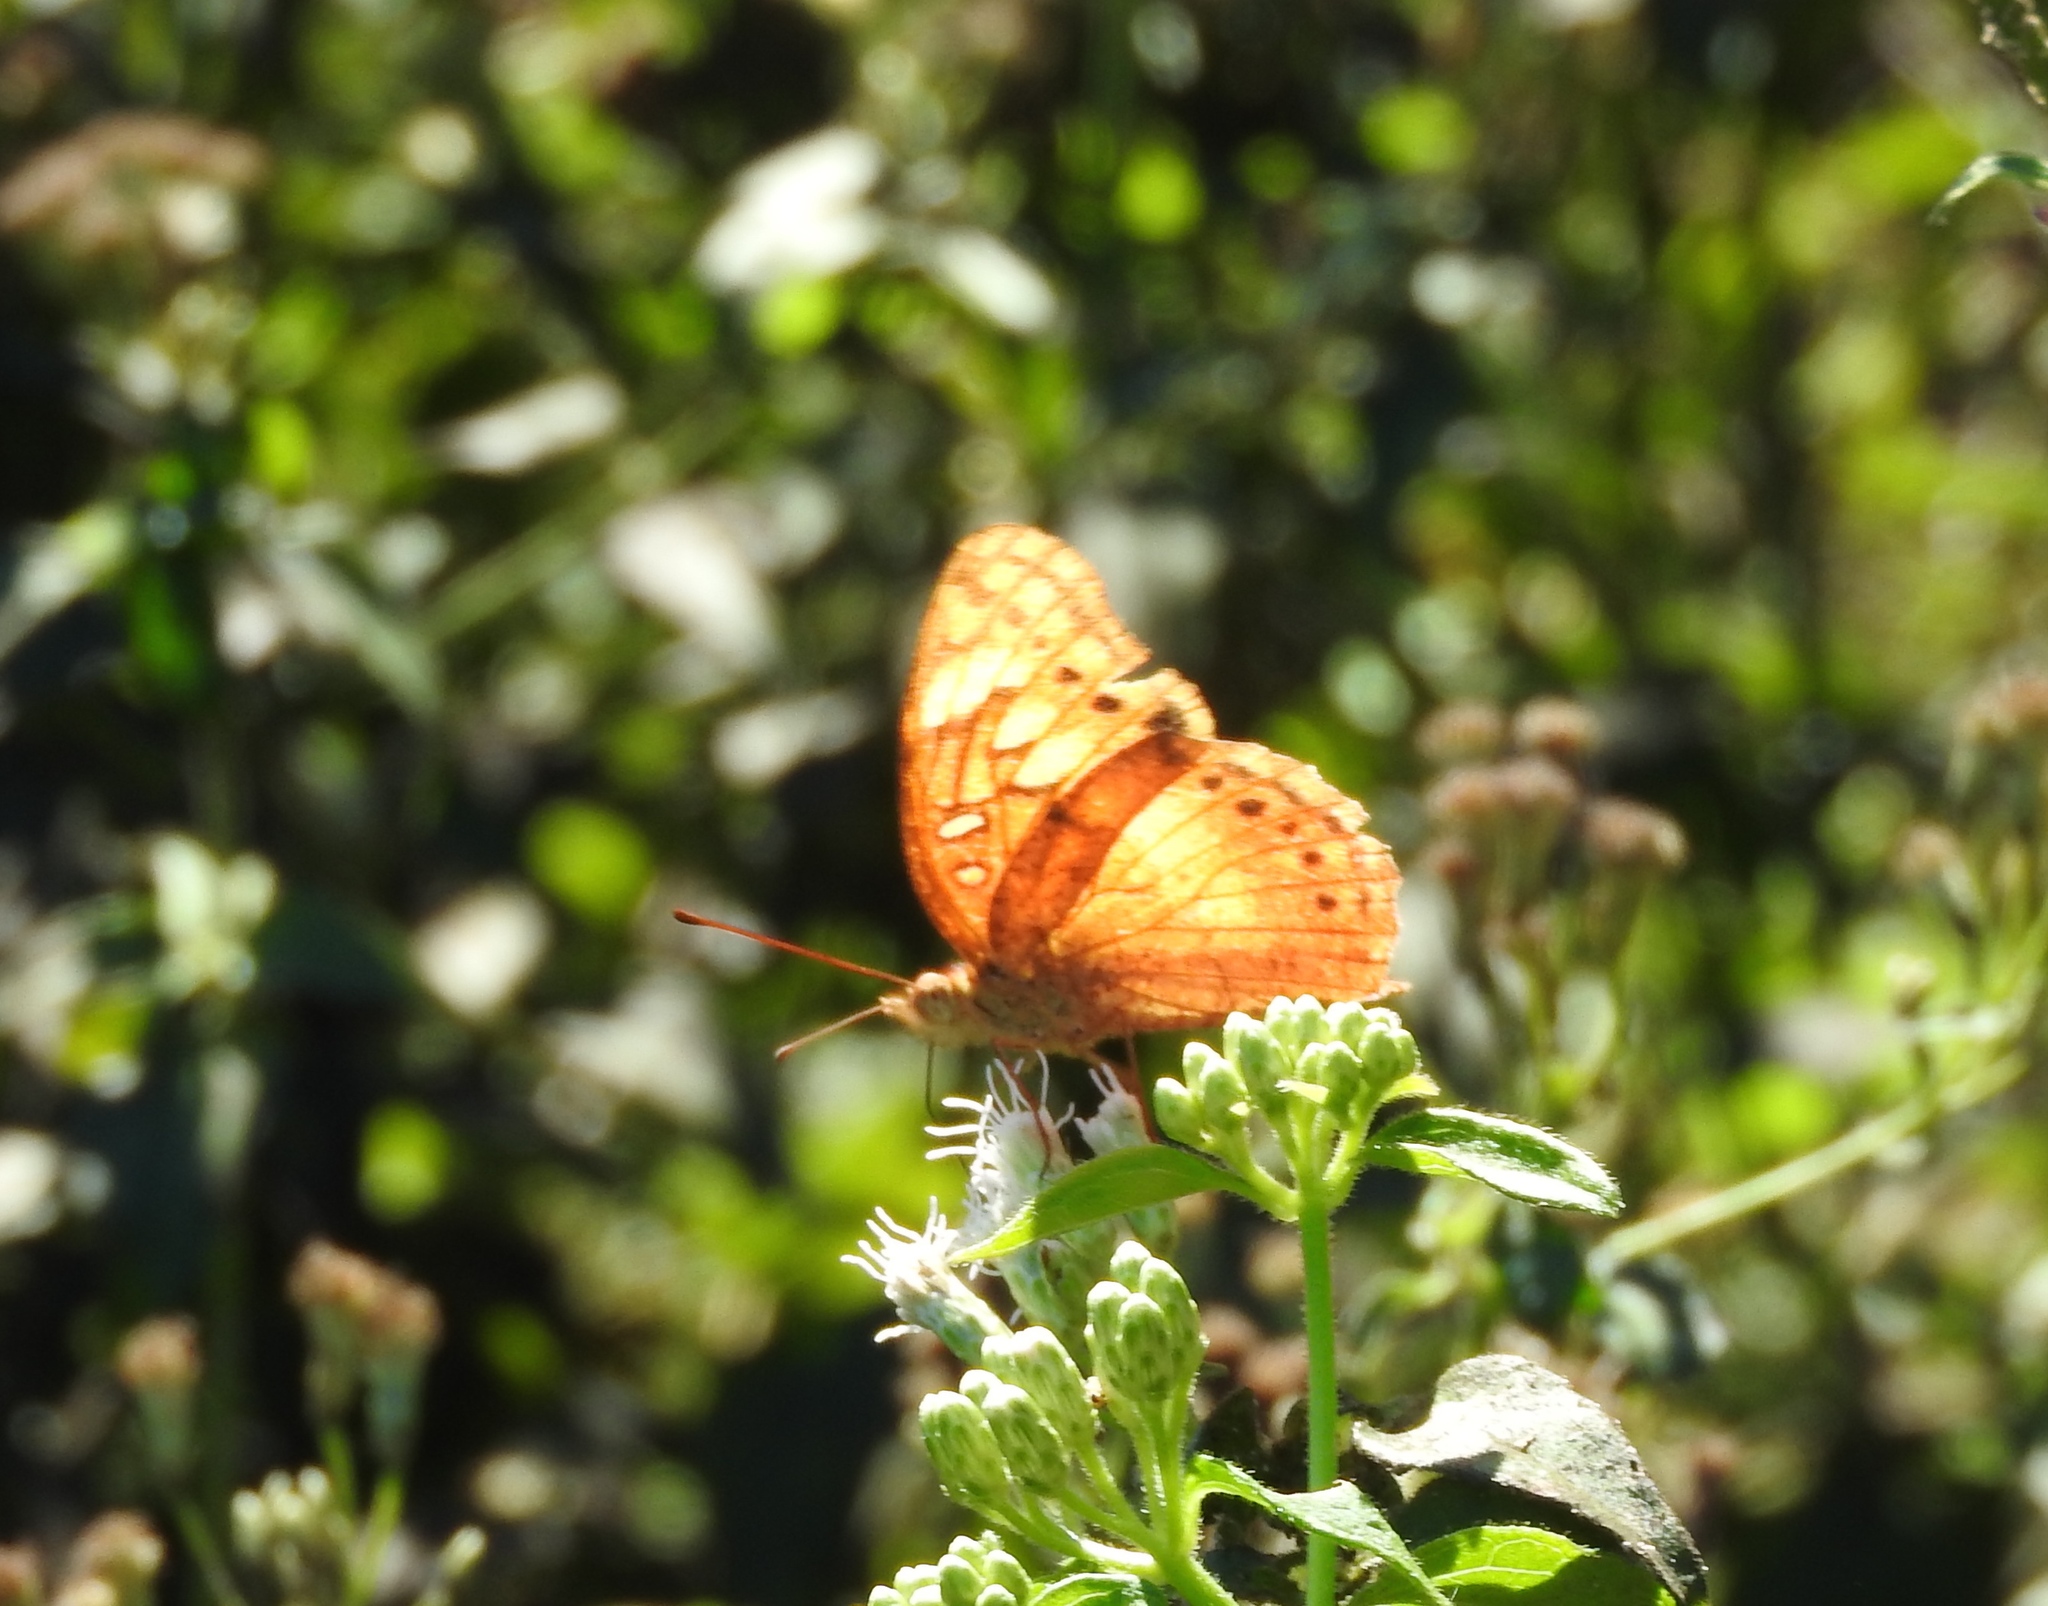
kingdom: Animalia
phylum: Arthropoda
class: Insecta
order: Lepidoptera
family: Nymphalidae
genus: Euptoieta
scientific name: Euptoieta hegesia
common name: Mexican fritillary
